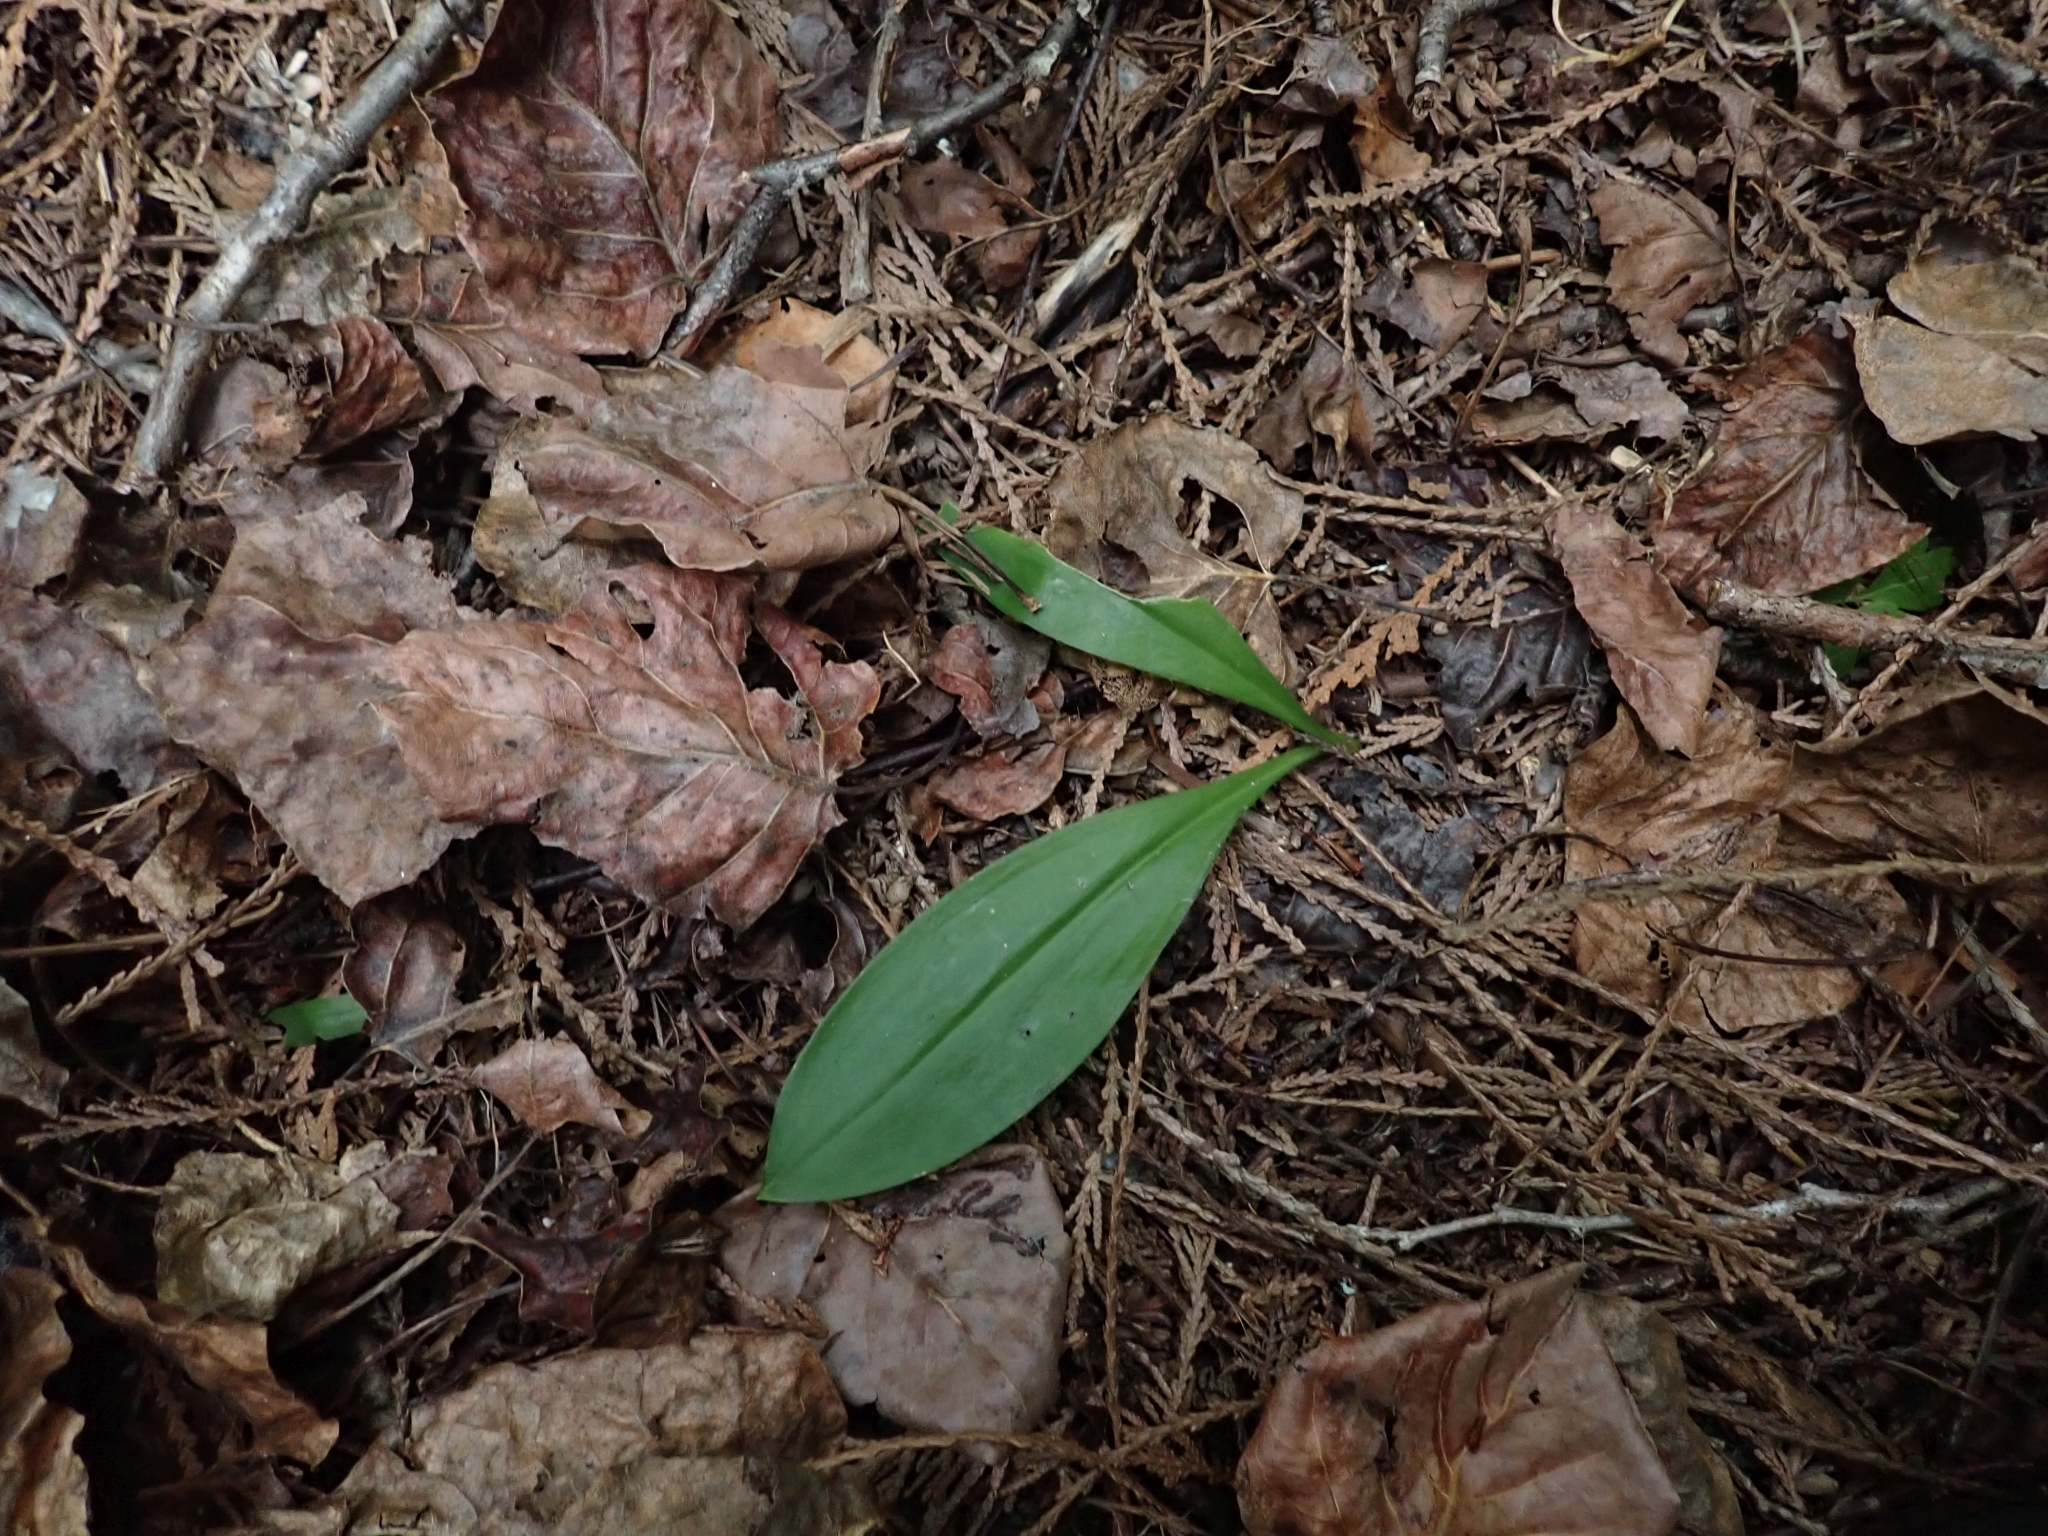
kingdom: Plantae
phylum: Tracheophyta
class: Liliopsida
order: Liliales
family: Liliaceae
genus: Clintonia
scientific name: Clintonia uniflora
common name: Queen's cup
